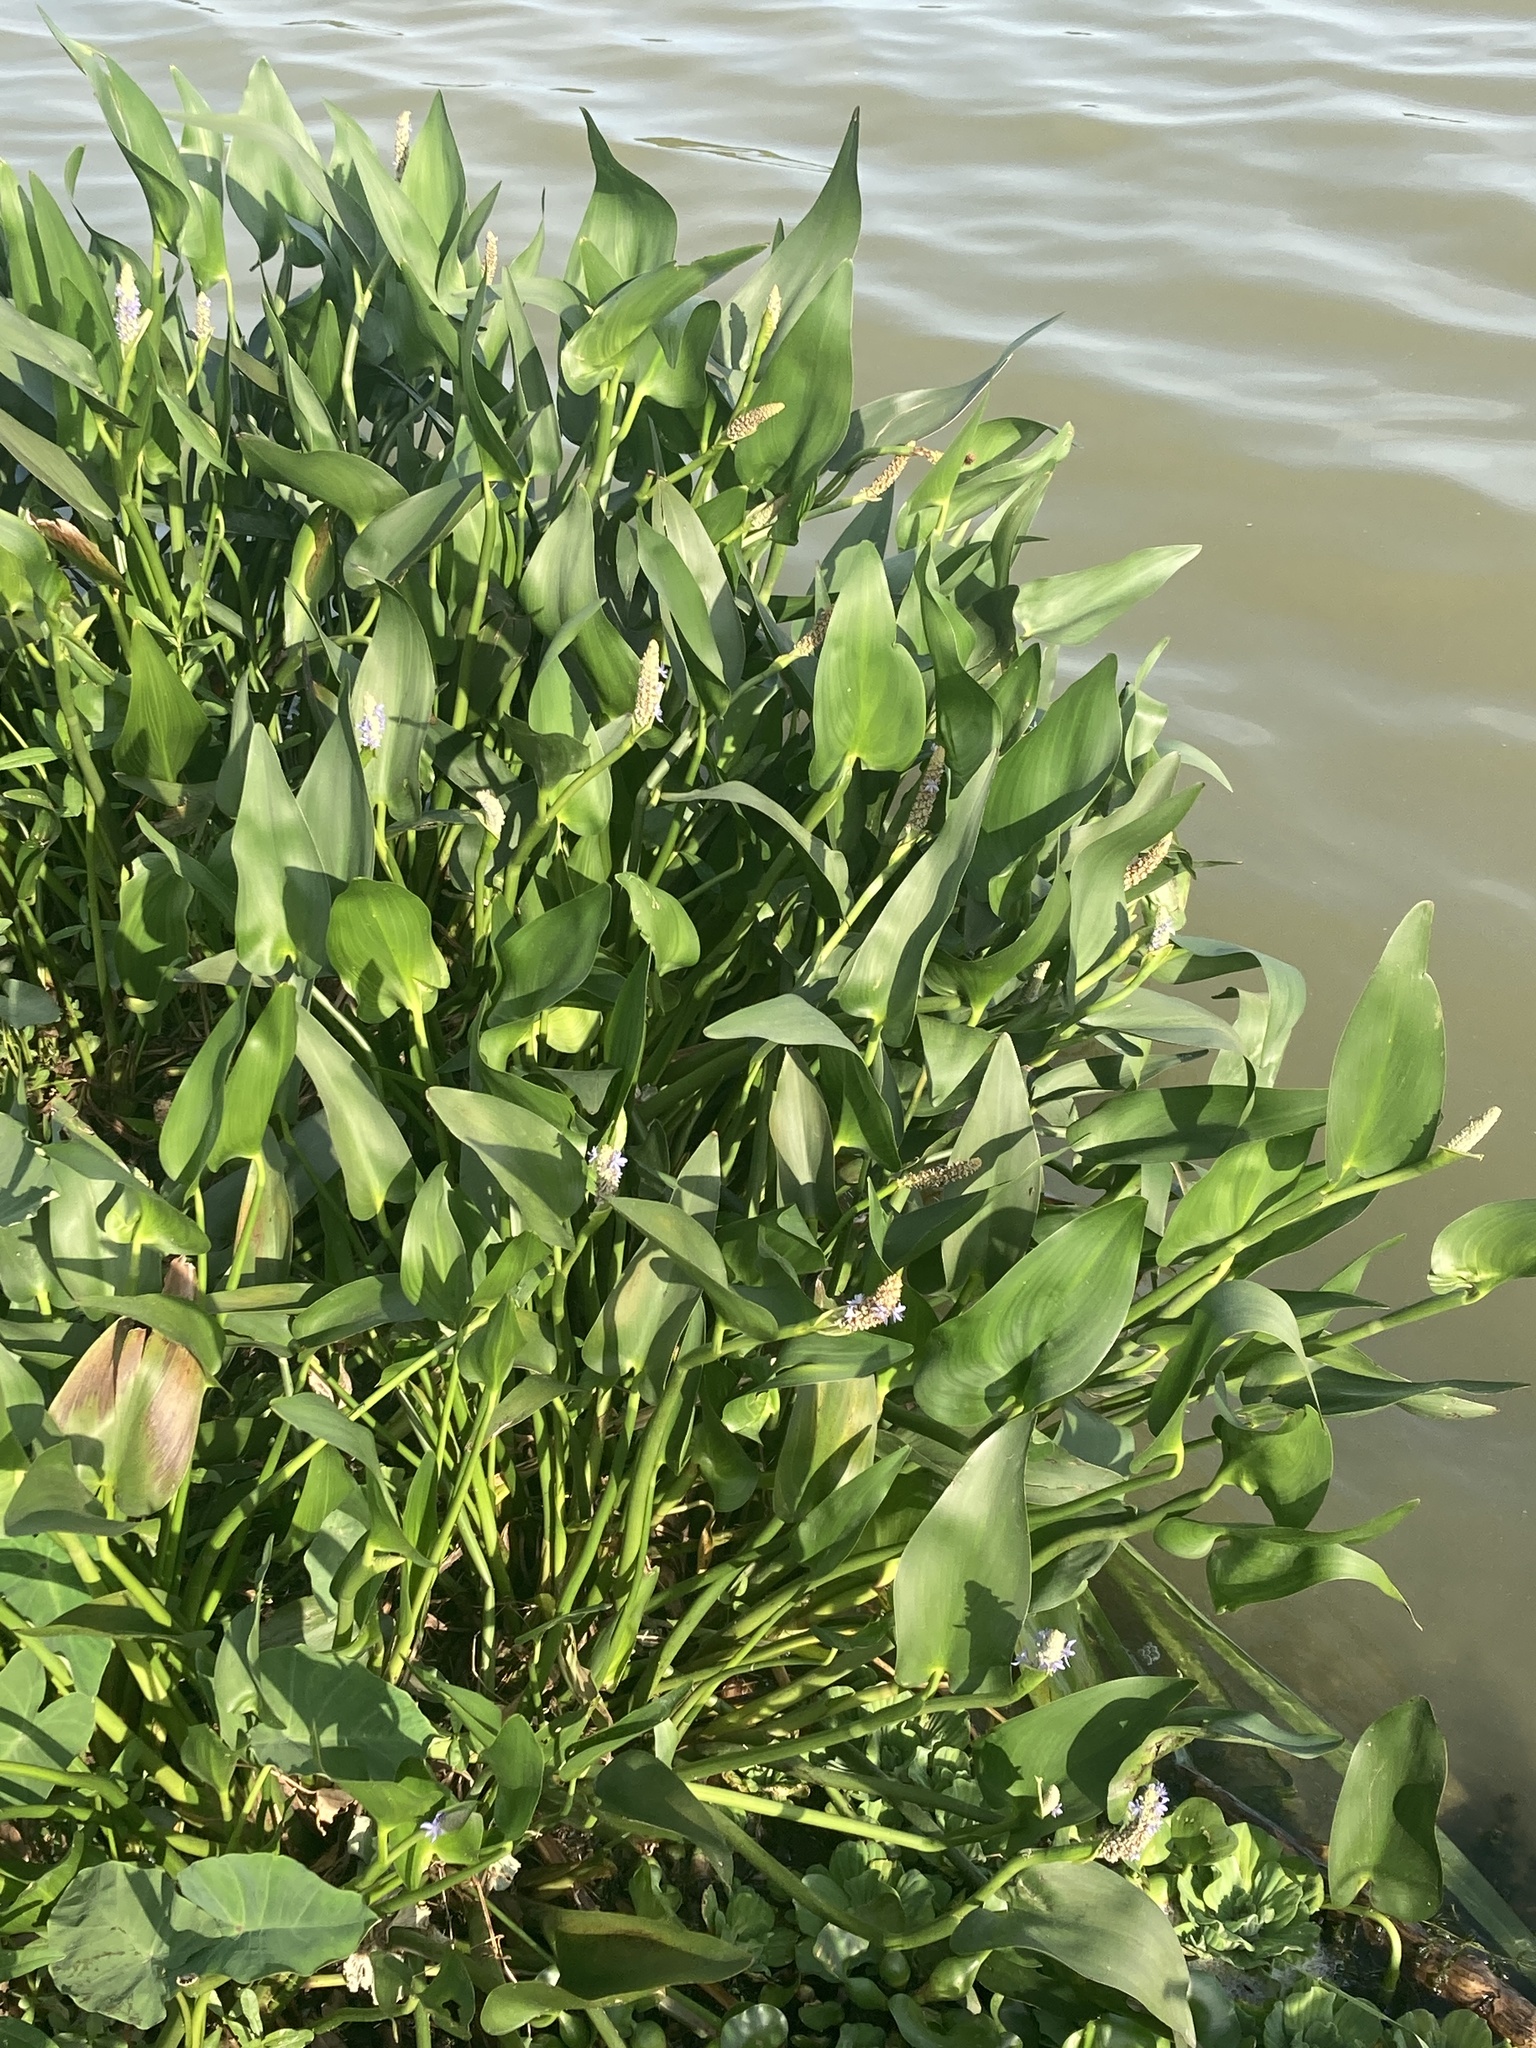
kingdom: Plantae
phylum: Tracheophyta
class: Liliopsida
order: Commelinales
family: Pontederiaceae
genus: Pontederia
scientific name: Pontederia cordata
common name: Pickerelweed
